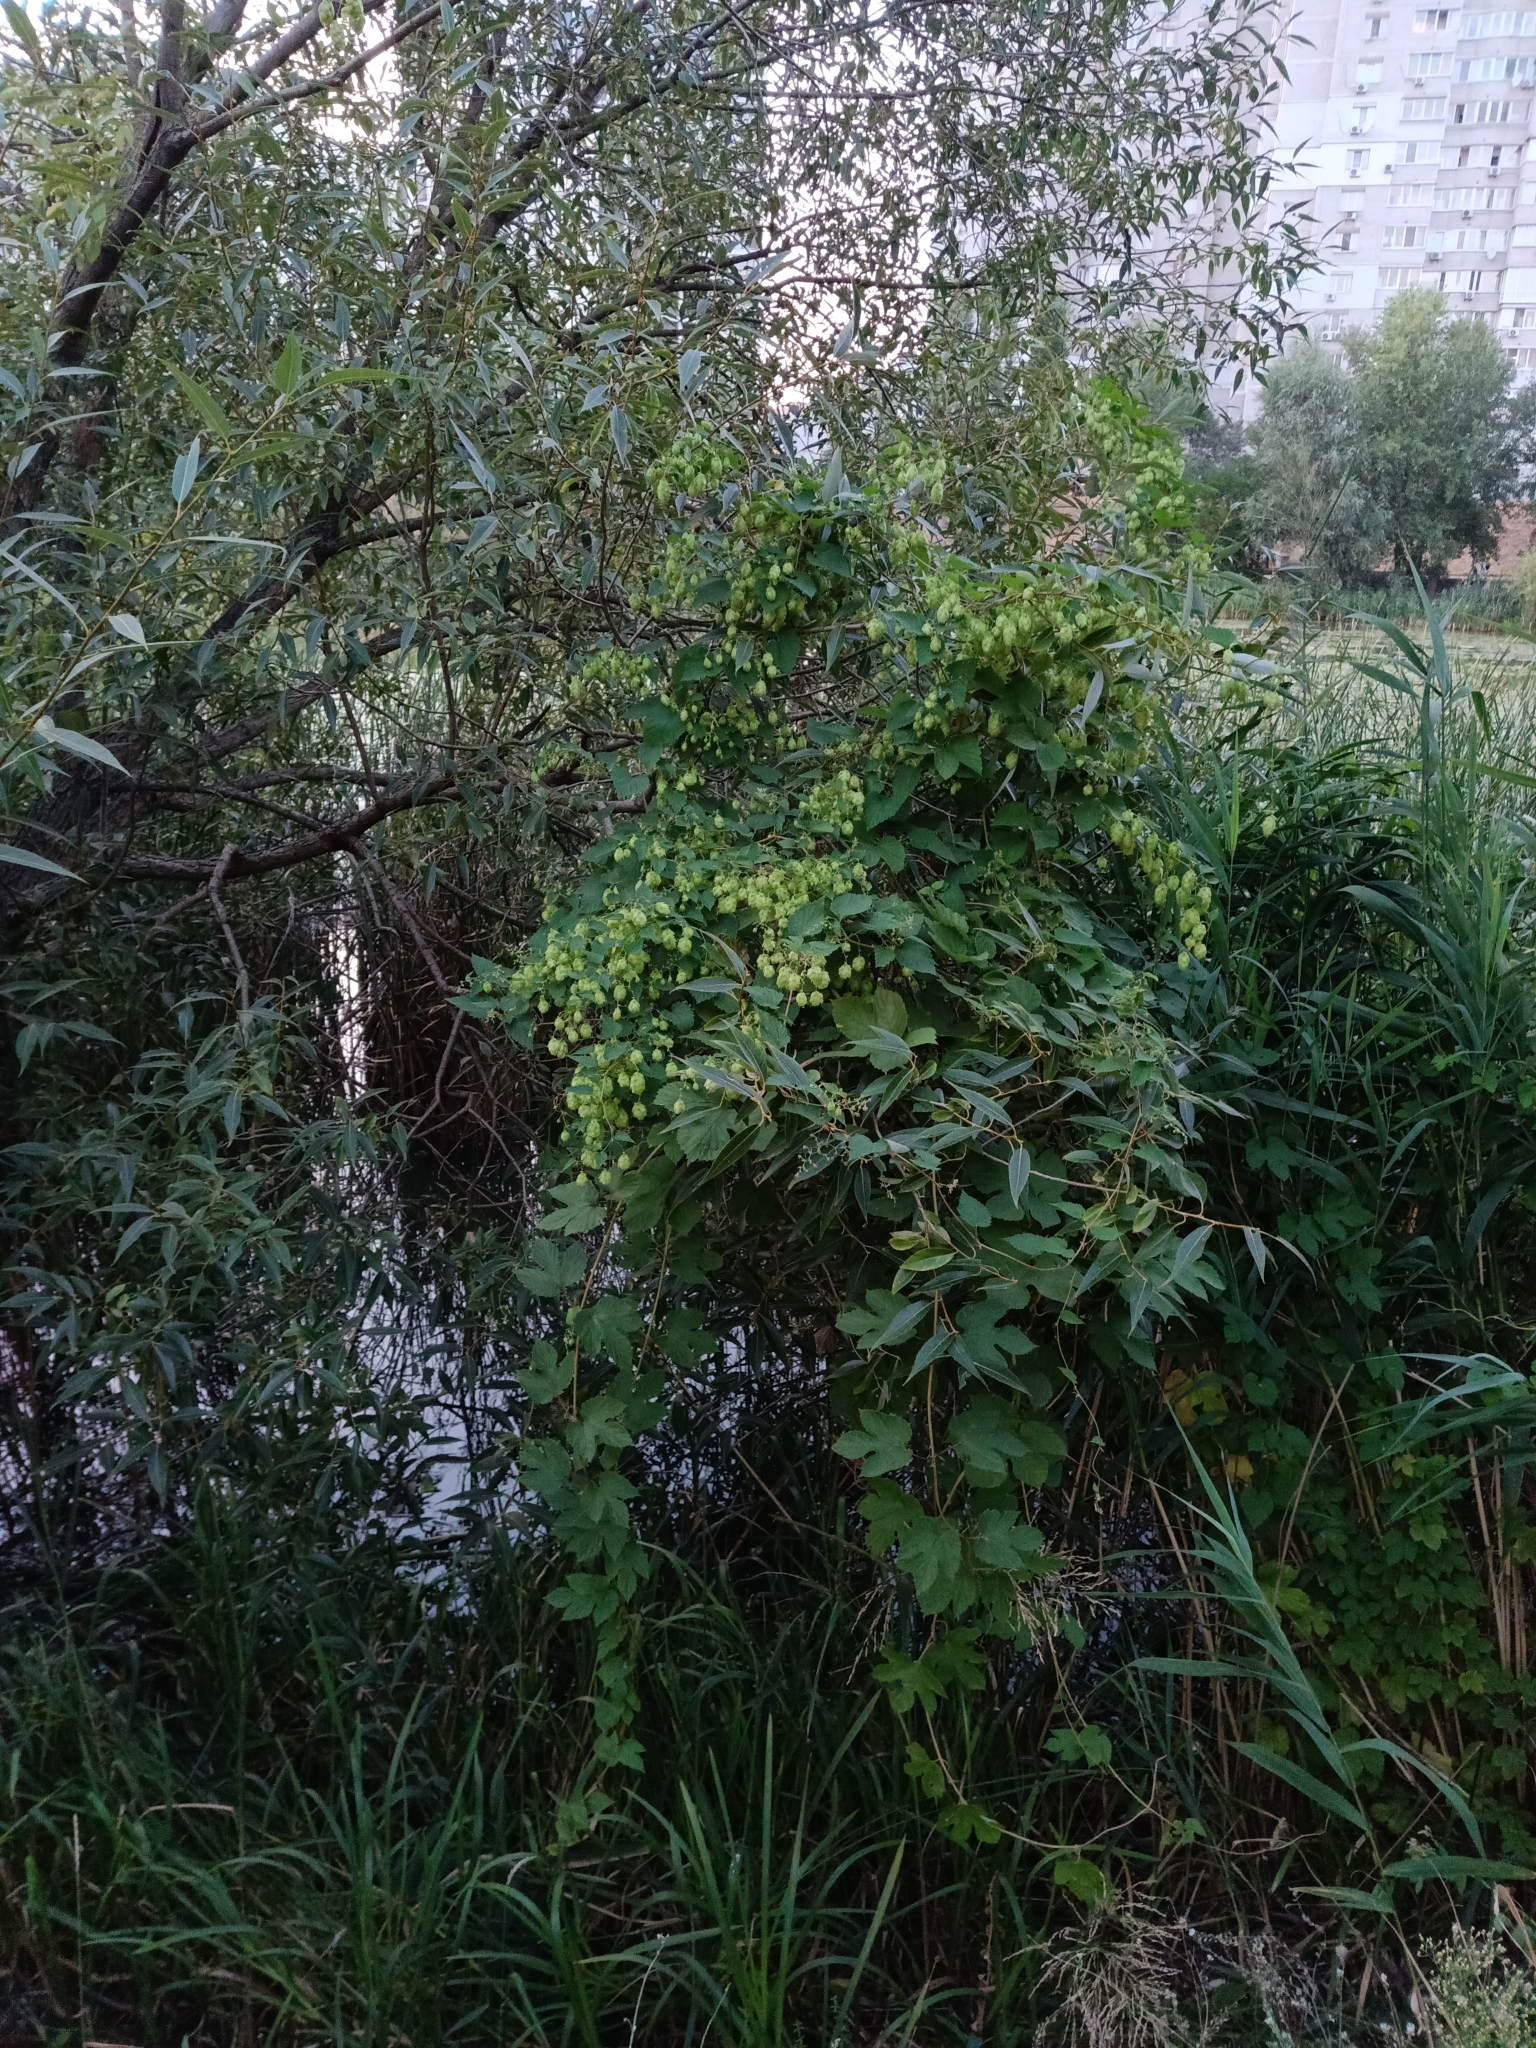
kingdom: Plantae
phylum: Tracheophyta
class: Magnoliopsida
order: Rosales
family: Cannabaceae
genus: Humulus
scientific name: Humulus lupulus
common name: Hop
